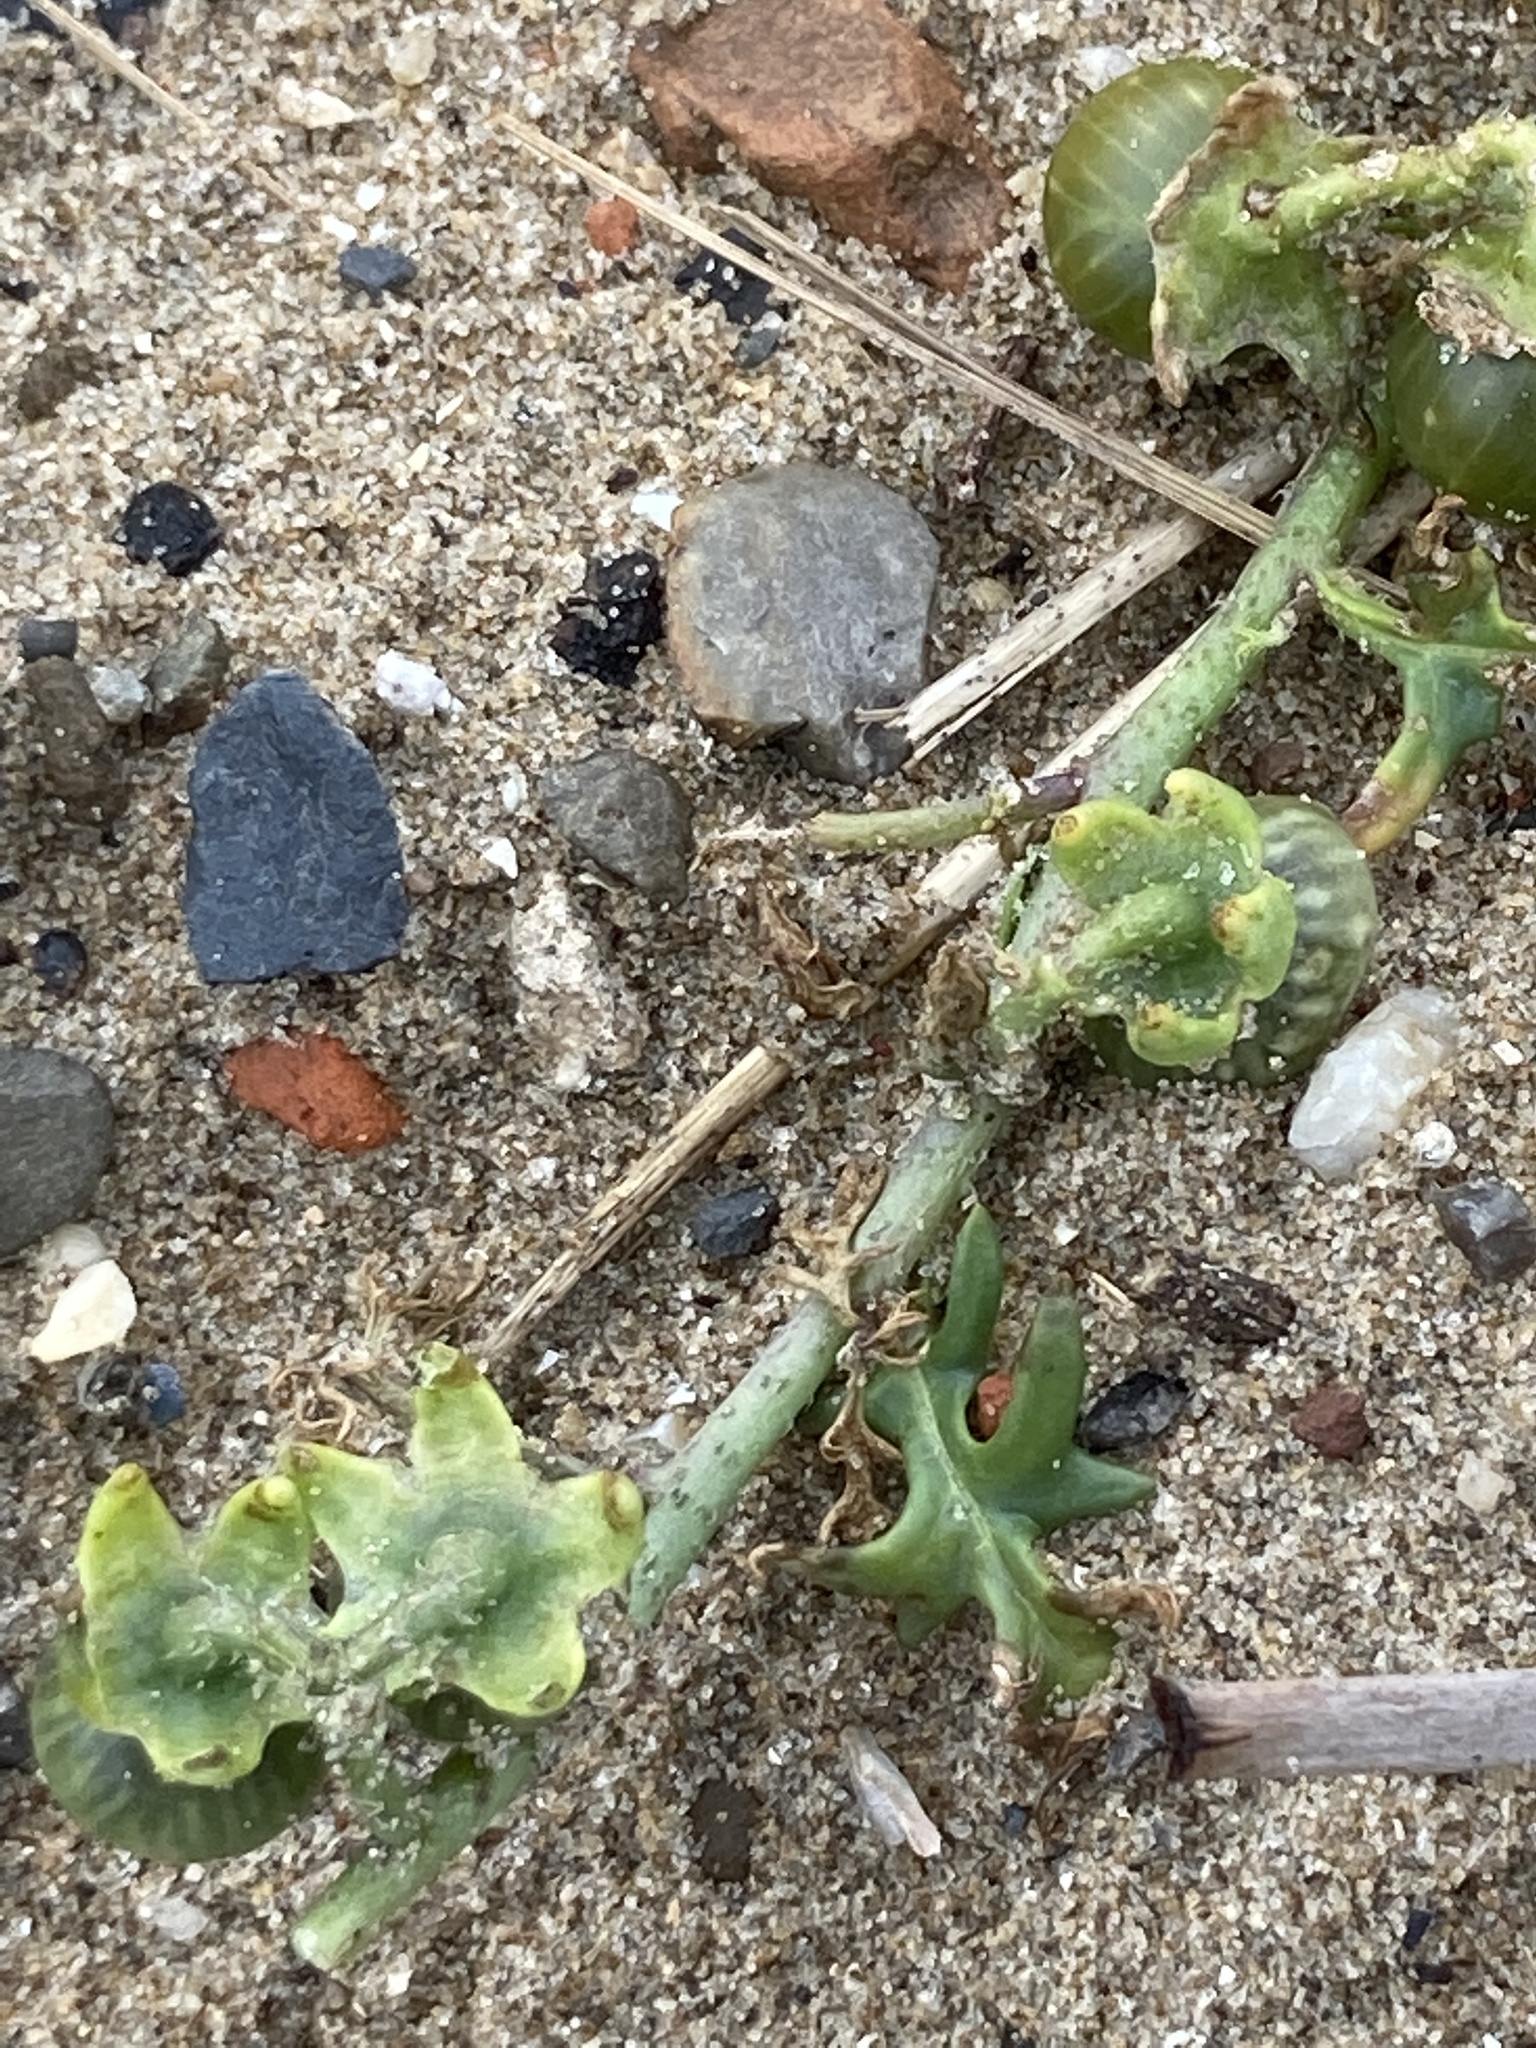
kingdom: Plantae
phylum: Tracheophyta
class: Magnoliopsida
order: Solanales
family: Solanaceae
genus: Solanum
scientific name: Solanum triflorum
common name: Small nightshade
